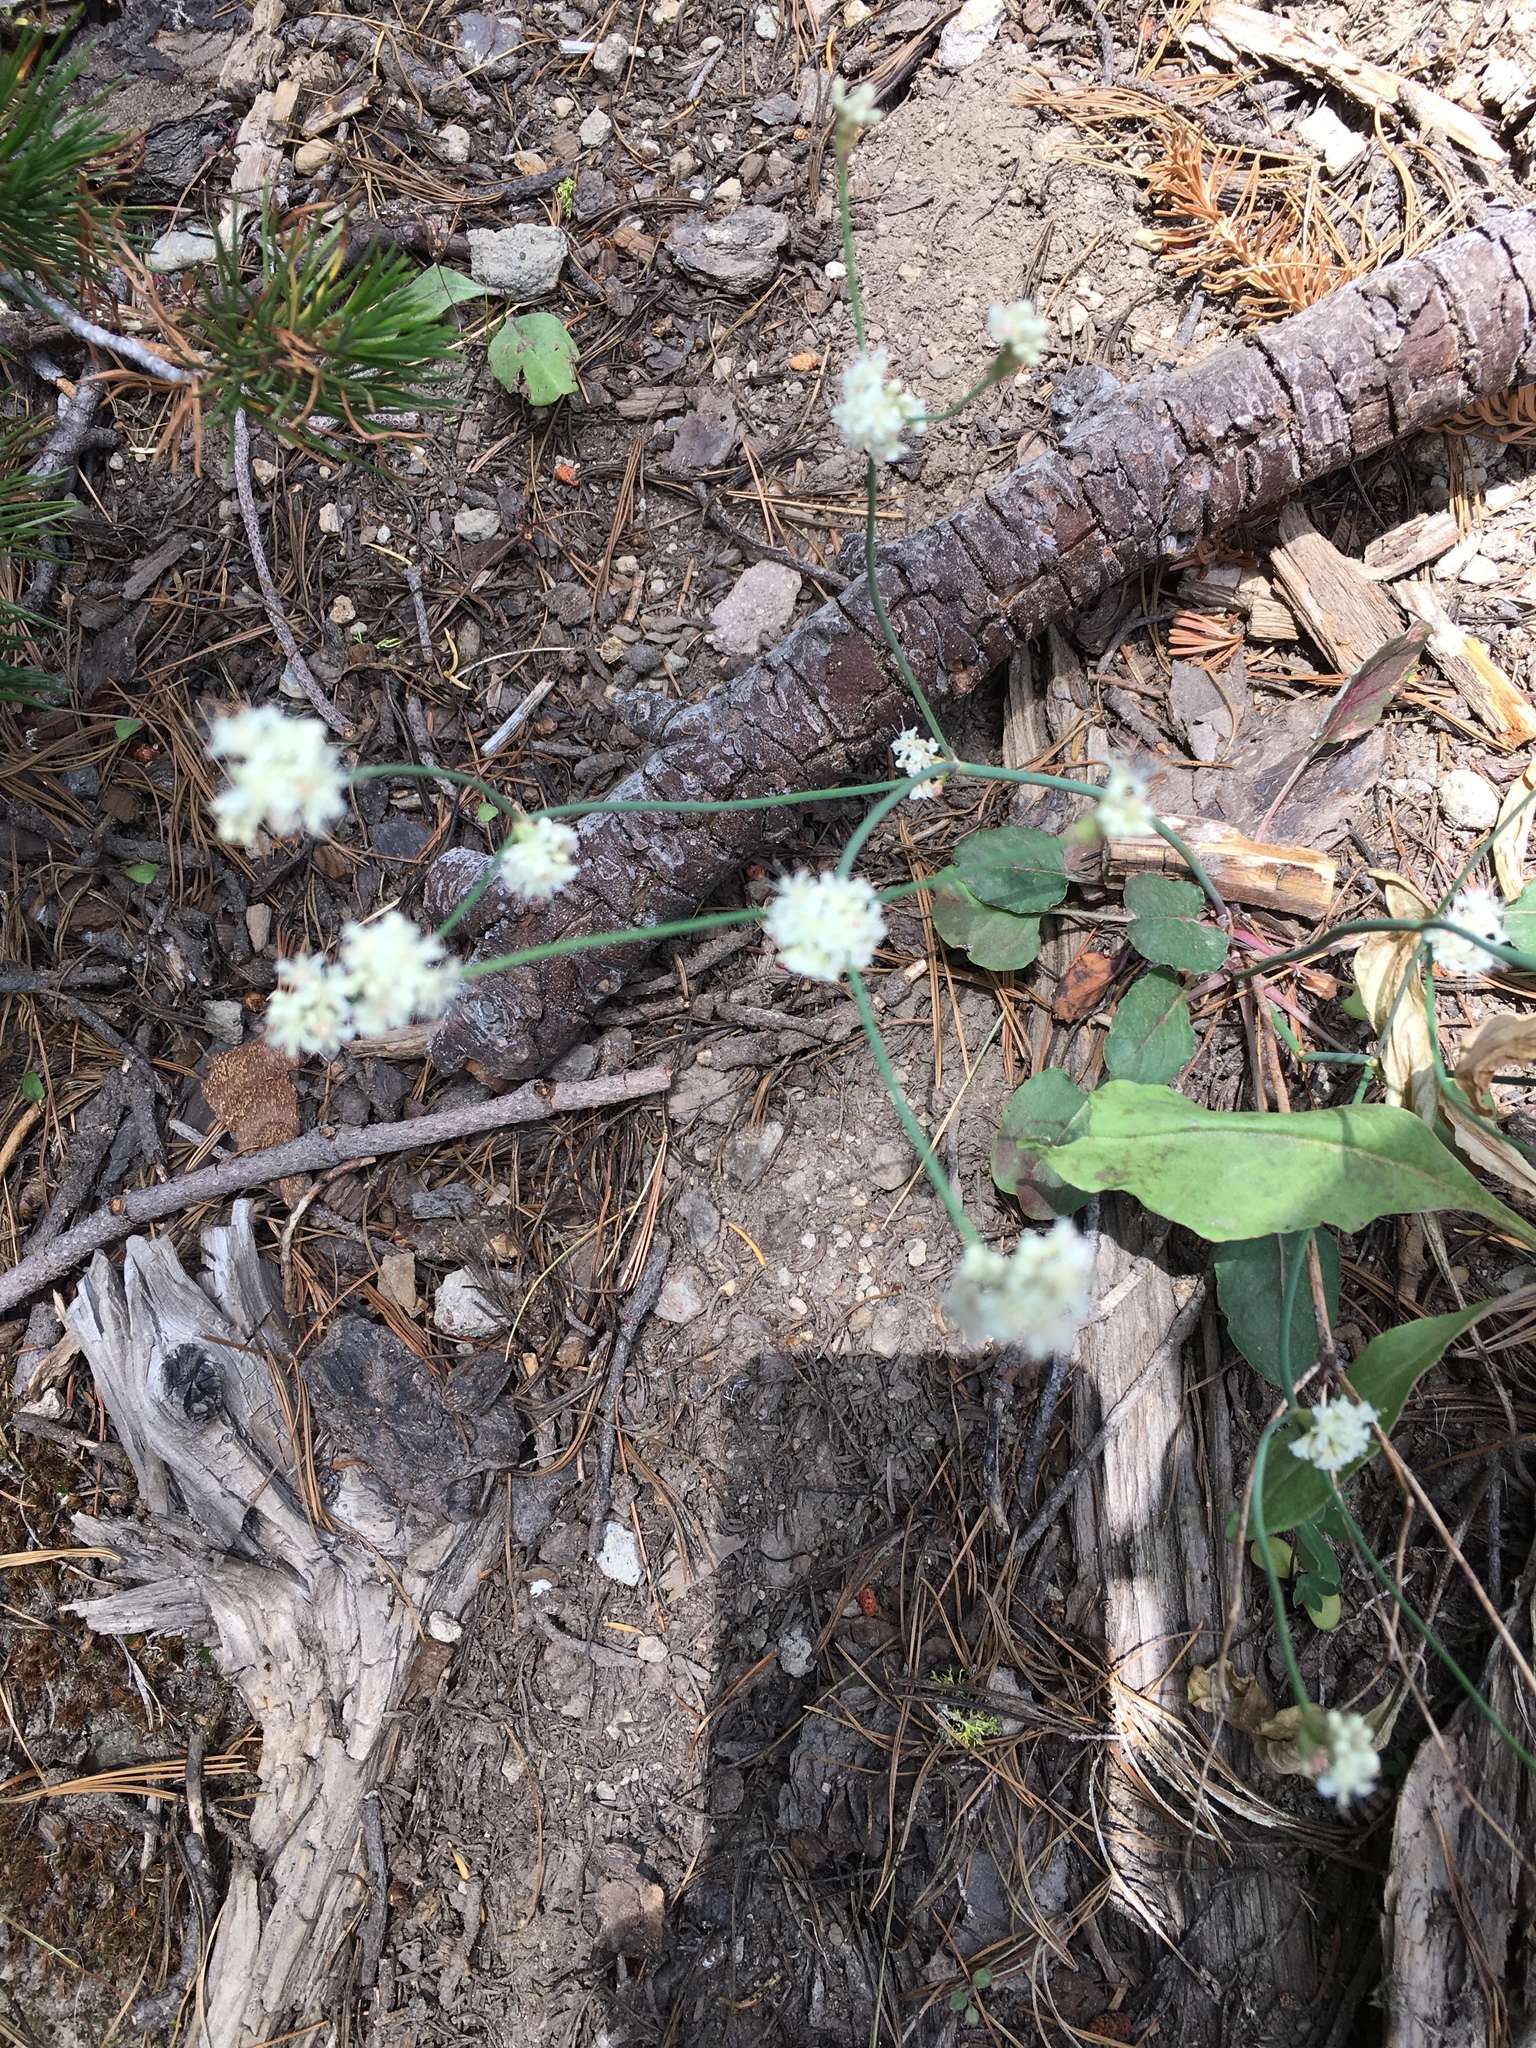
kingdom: Plantae
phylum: Tracheophyta
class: Magnoliopsida
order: Caryophyllales
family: Polygonaceae
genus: Eriogonum
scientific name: Eriogonum nudum
